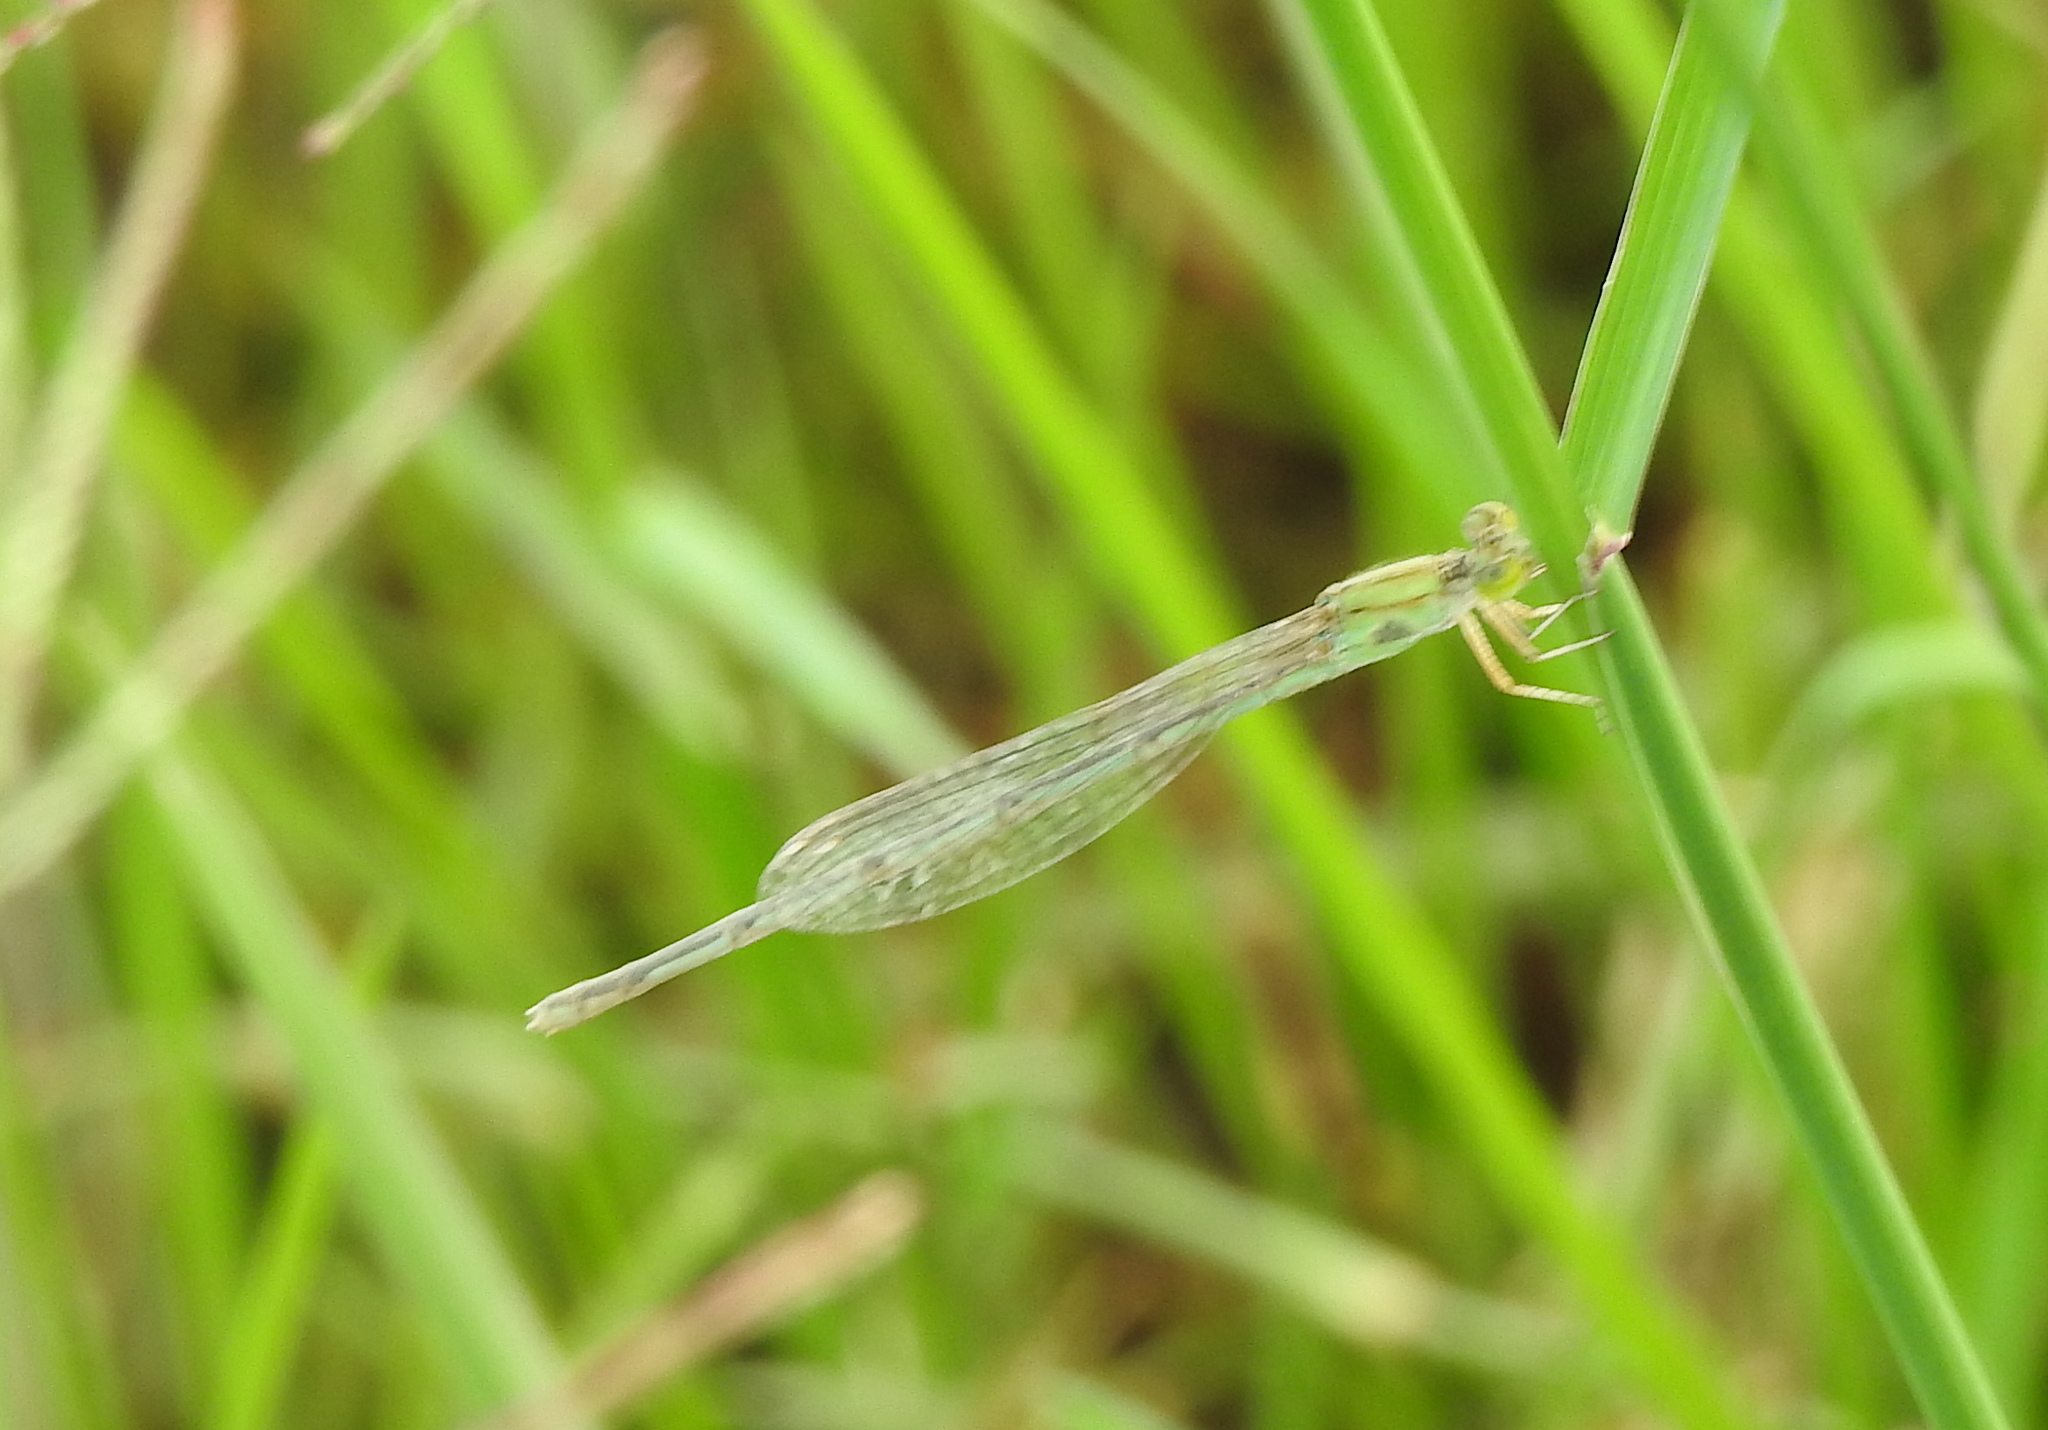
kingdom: Animalia
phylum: Arthropoda
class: Insecta
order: Odonata
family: Coenagrionidae
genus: Pseudagrion
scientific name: Pseudagrion decorum
